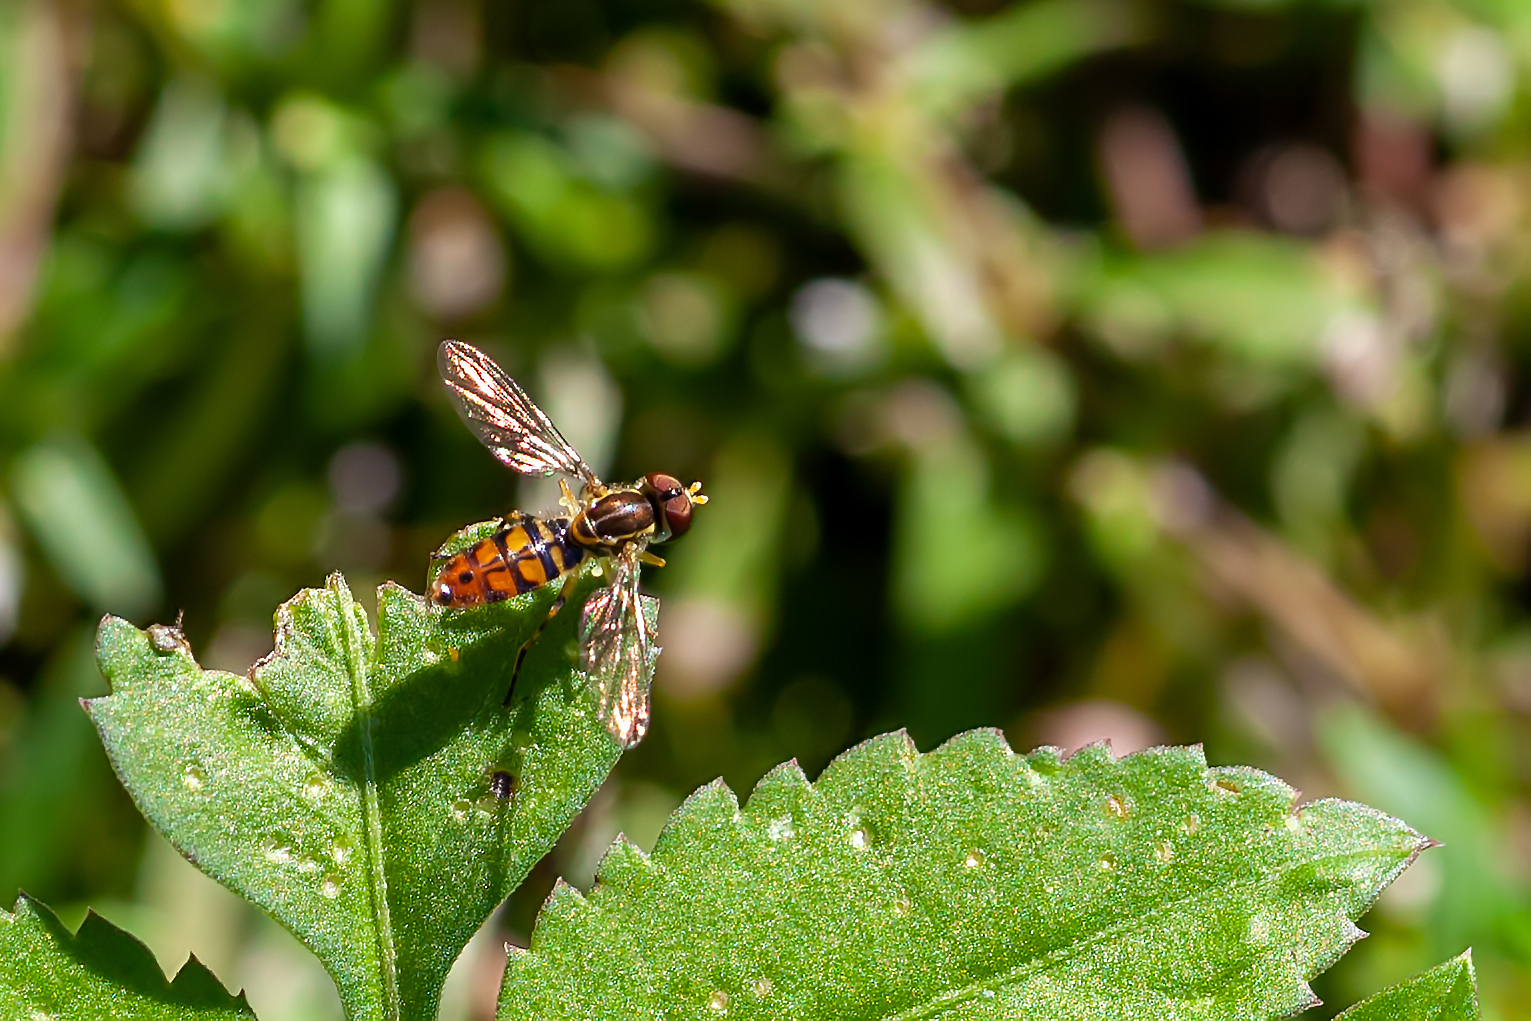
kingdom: Animalia
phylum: Arthropoda
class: Insecta
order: Diptera
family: Syrphidae
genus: Toxomerus
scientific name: Toxomerus floralis
